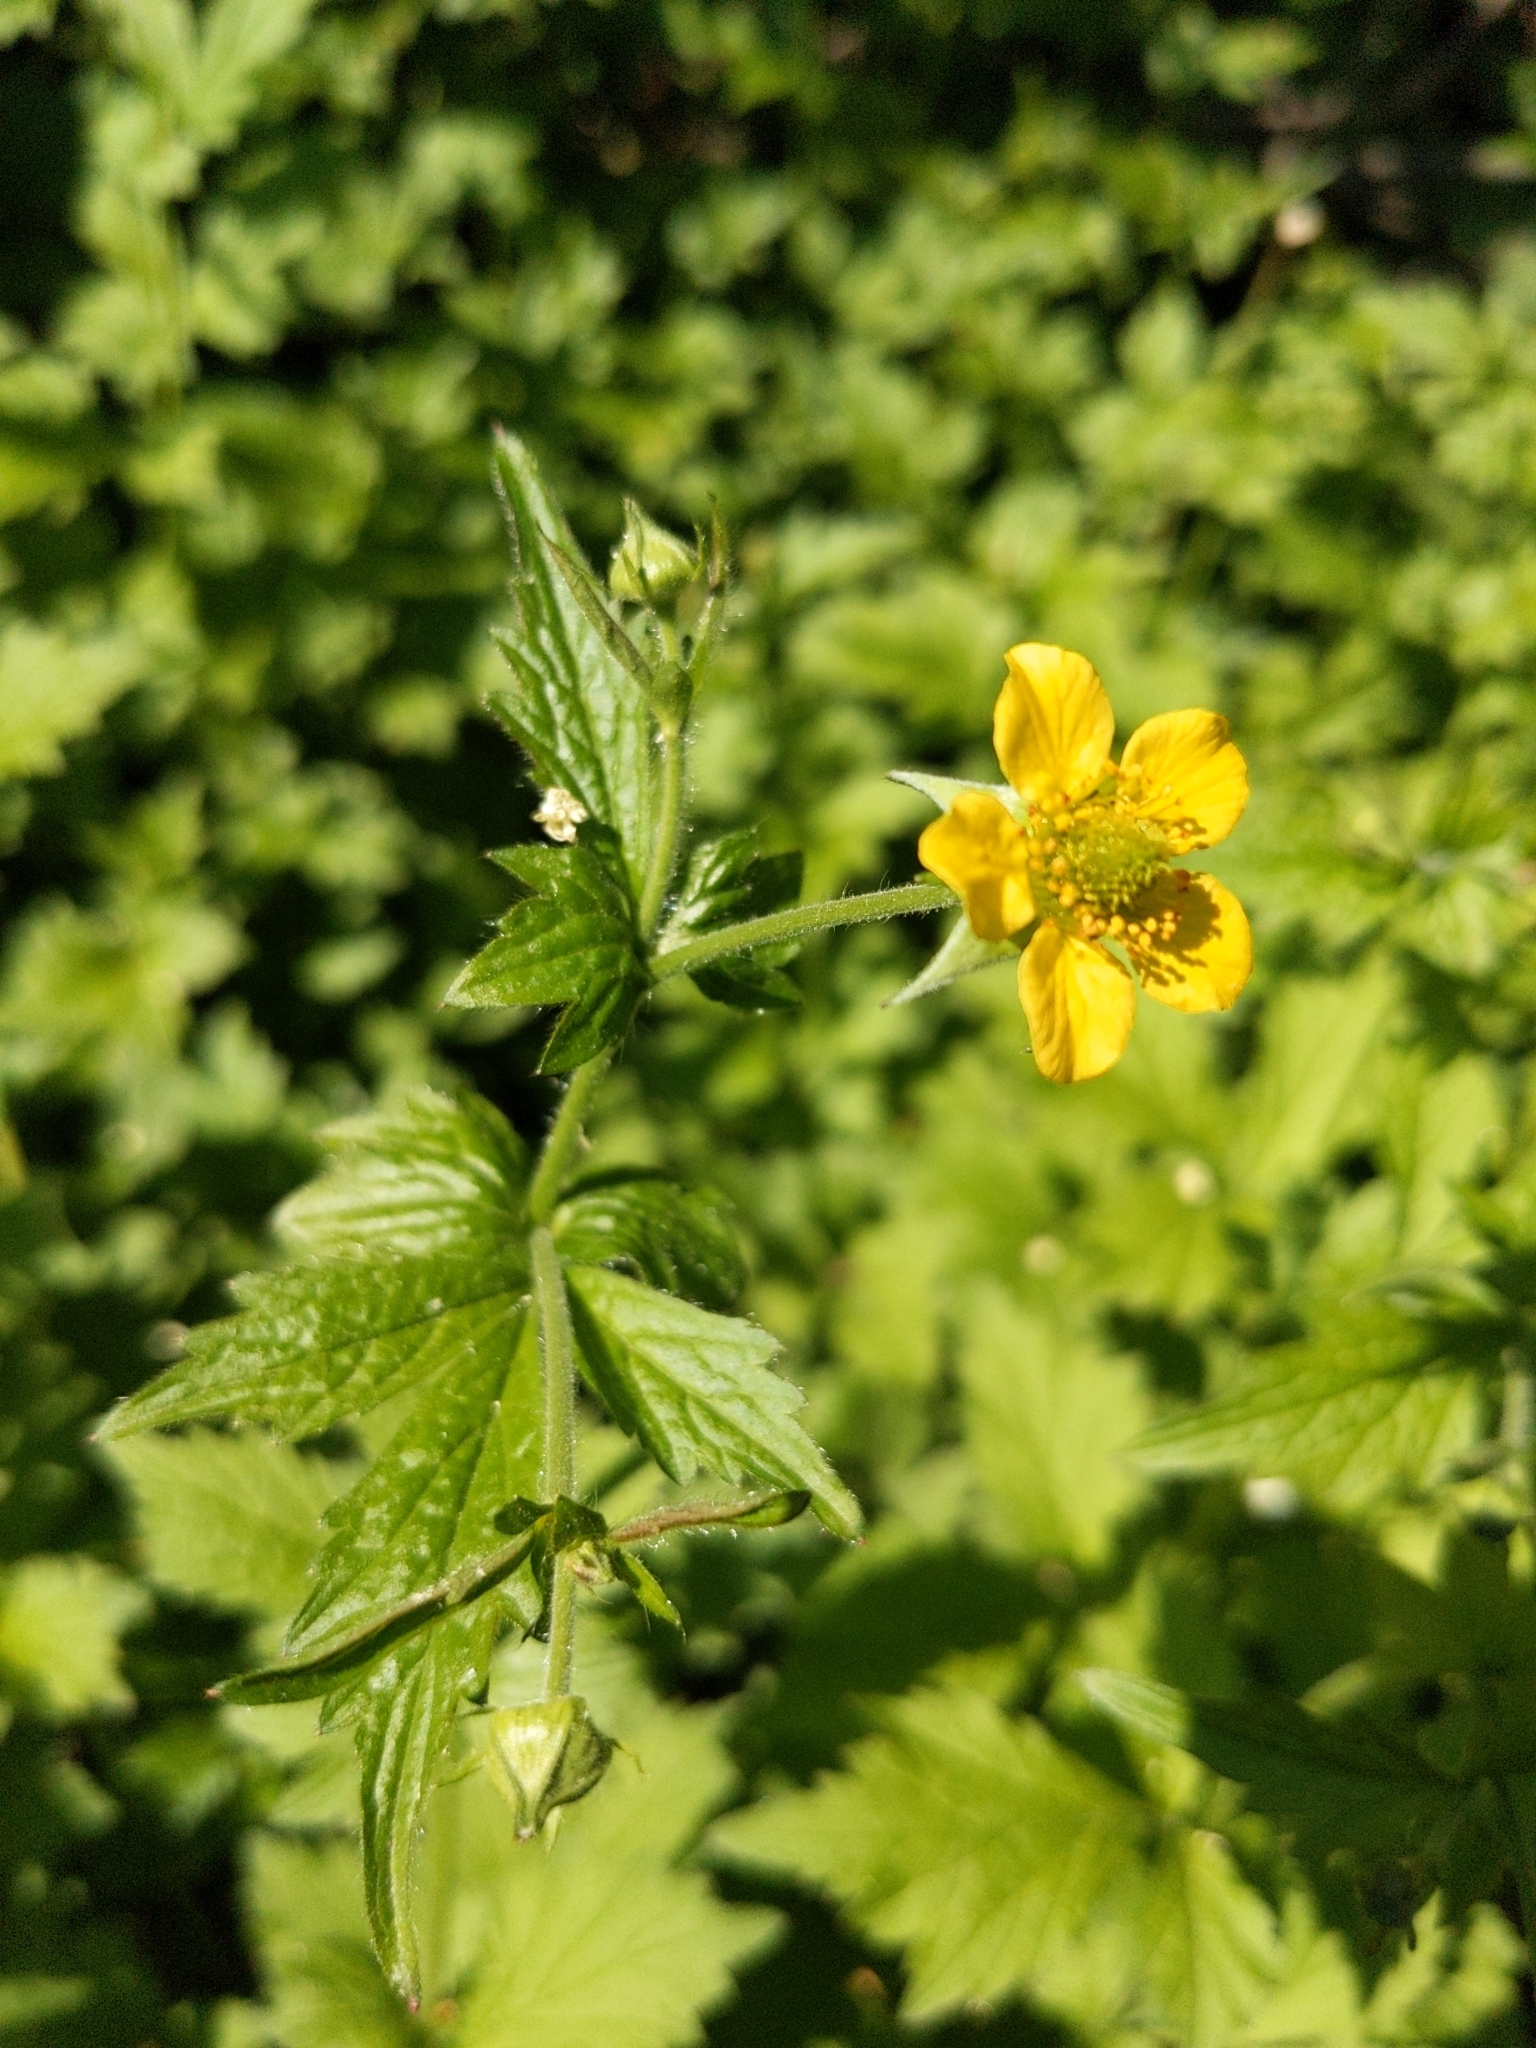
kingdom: Plantae
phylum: Tracheophyta
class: Magnoliopsida
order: Rosales
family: Rosaceae
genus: Geum
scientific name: Geum urbanum
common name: Wood avens
